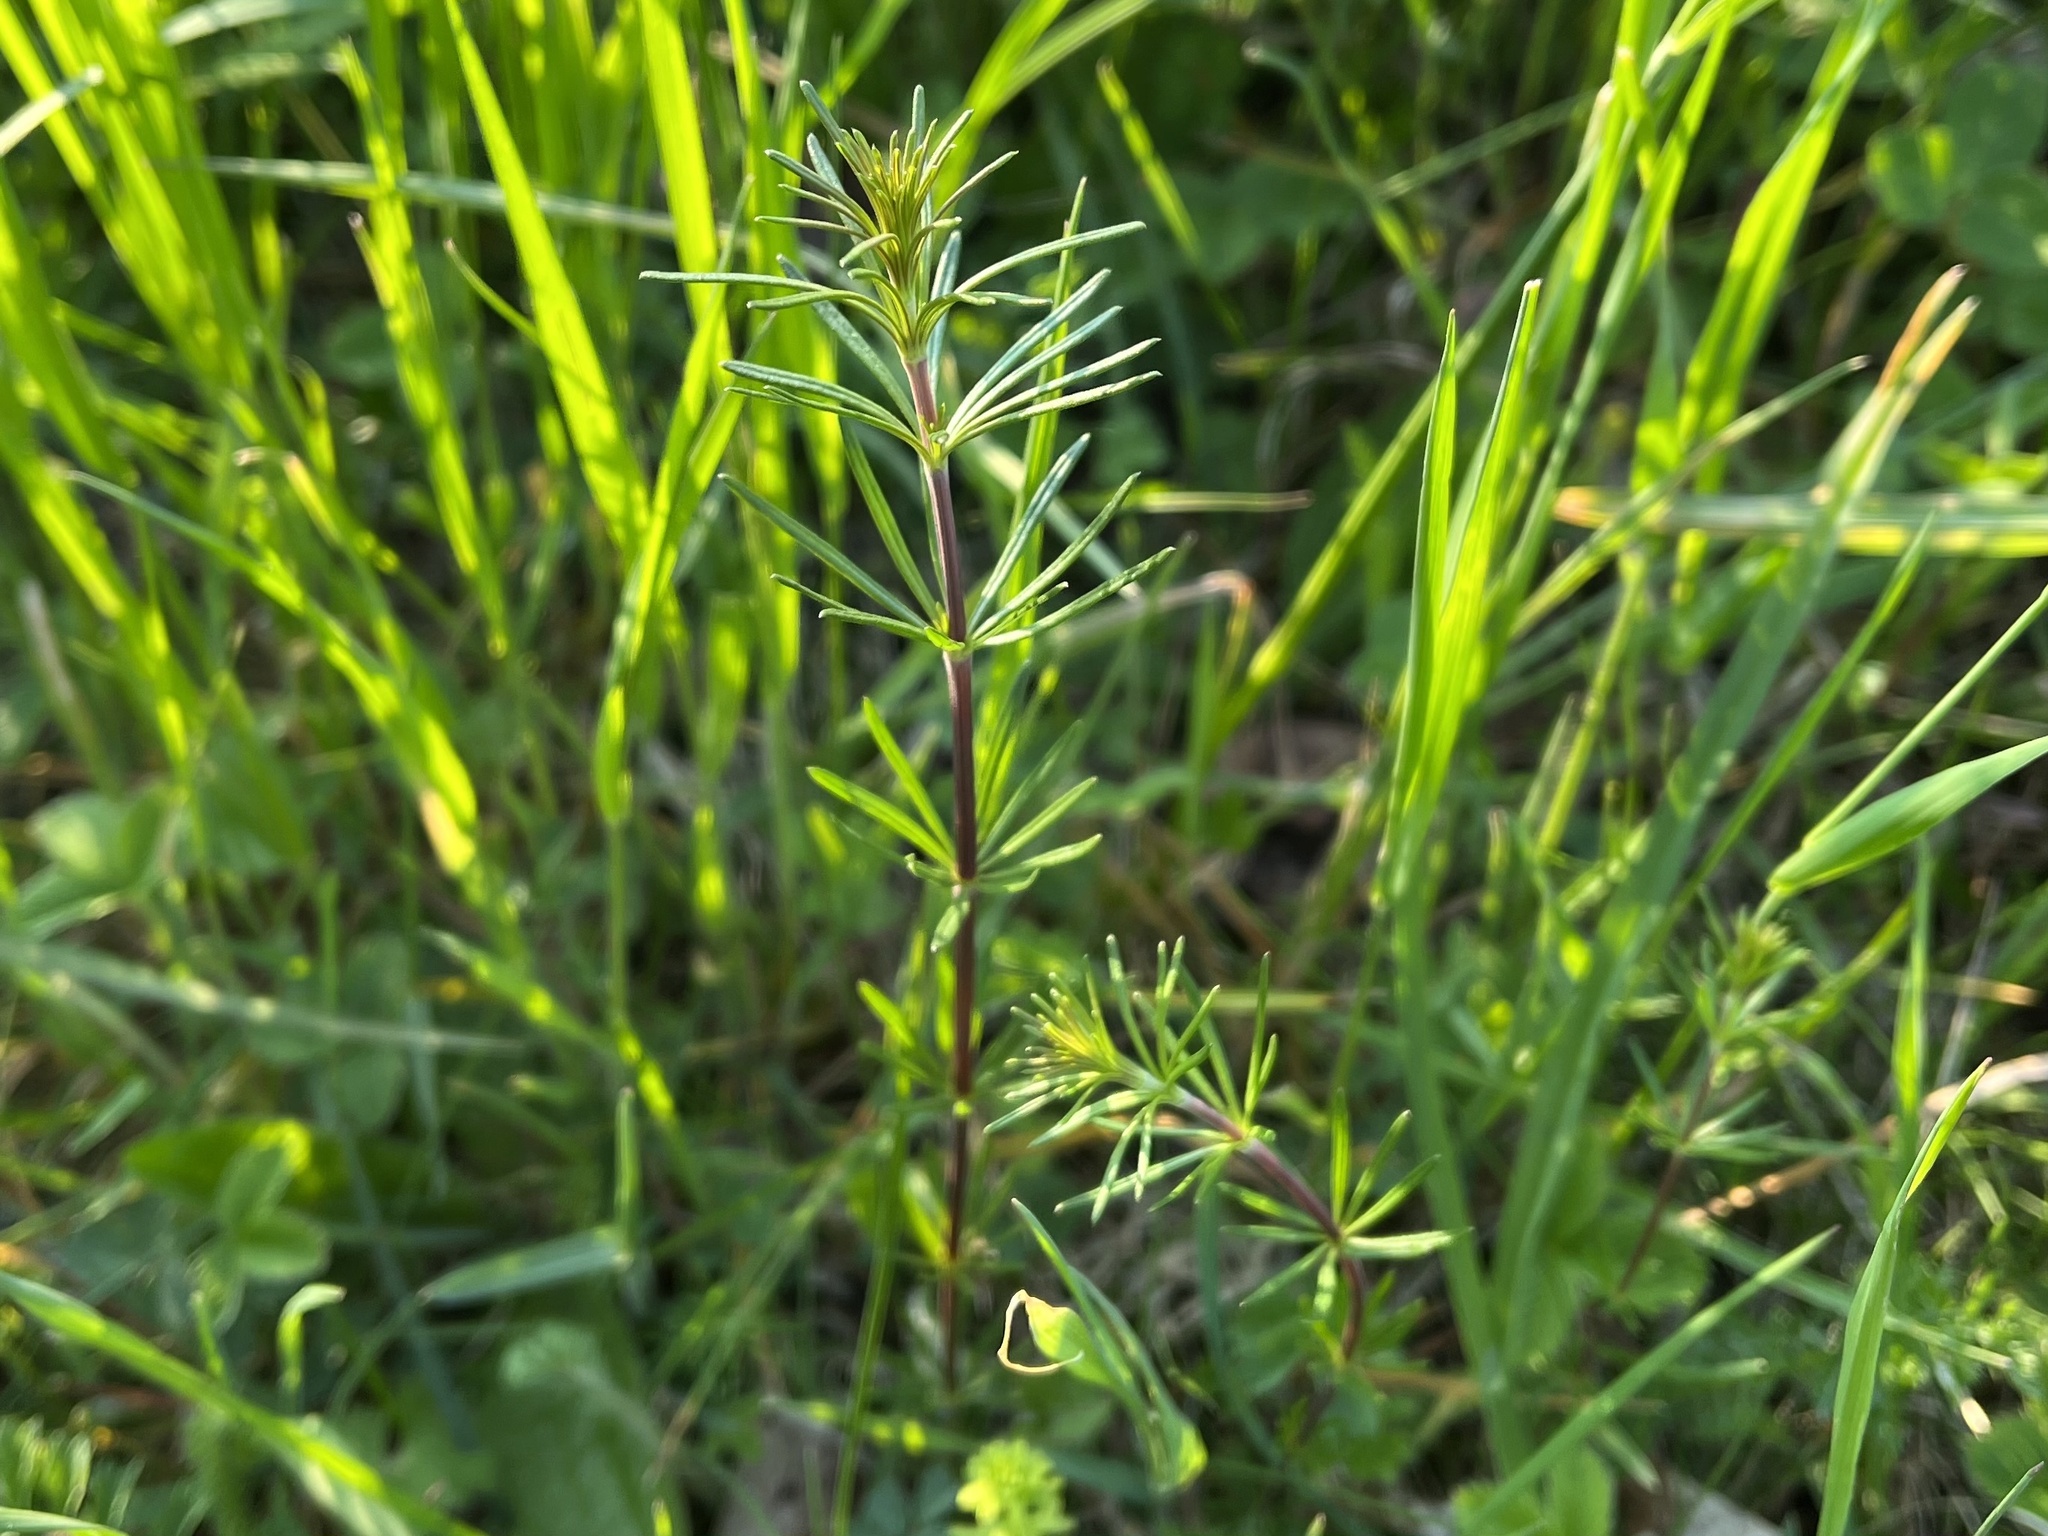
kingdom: Plantae
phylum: Tracheophyta
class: Magnoliopsida
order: Gentianales
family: Rubiaceae
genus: Galium
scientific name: Galium verum
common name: Lady's bedstraw
